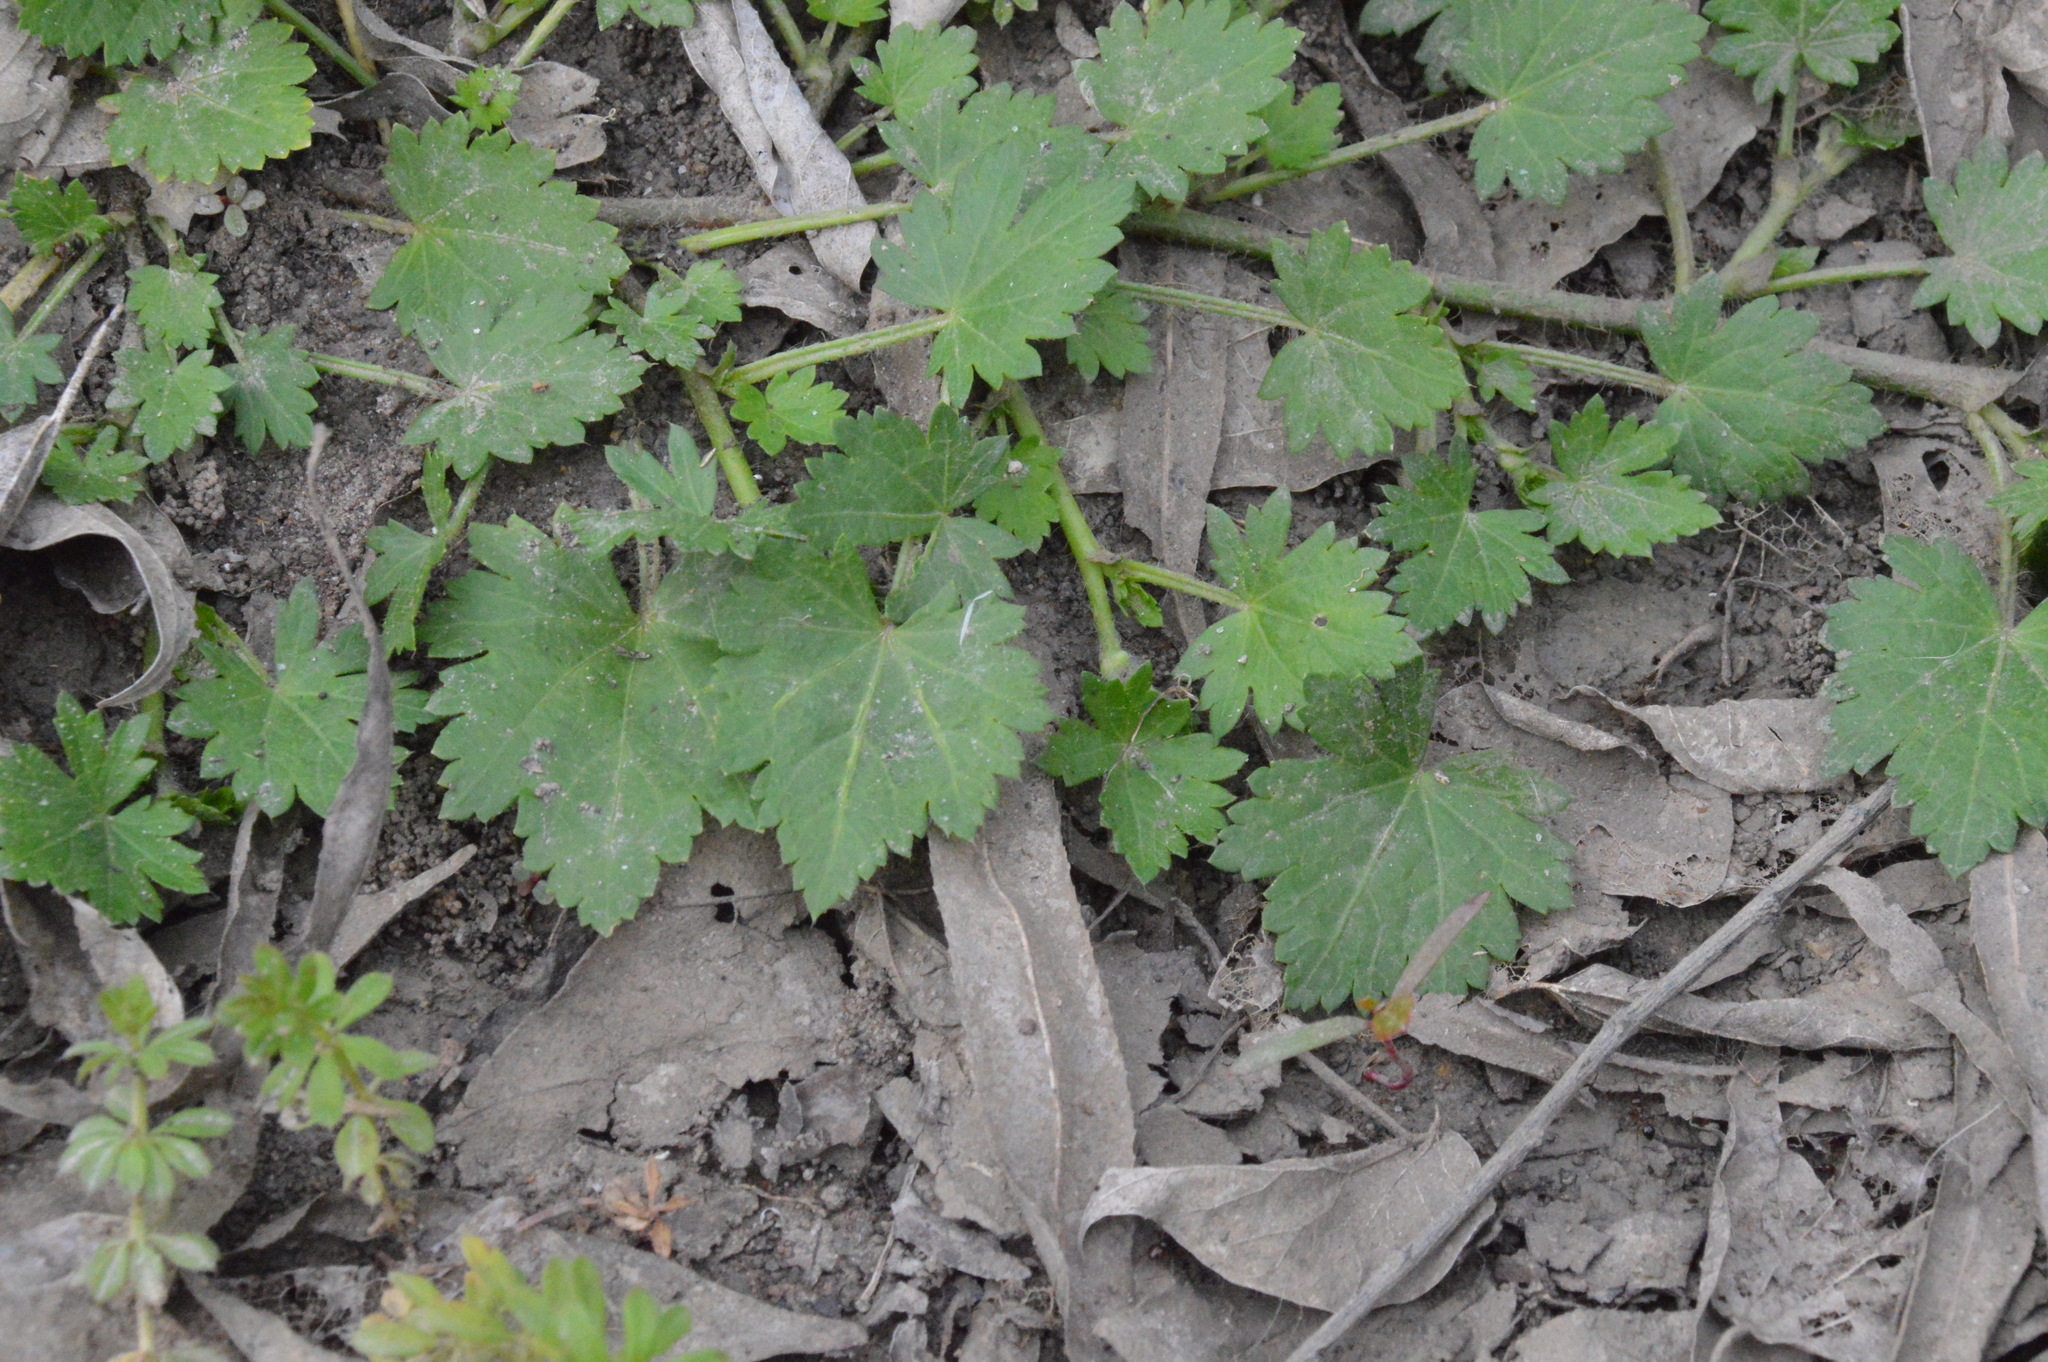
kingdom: Plantae
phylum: Tracheophyta
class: Magnoliopsida
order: Malvales
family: Malvaceae
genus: Modiola
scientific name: Modiola caroliniana
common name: Carolina bristlemallow
